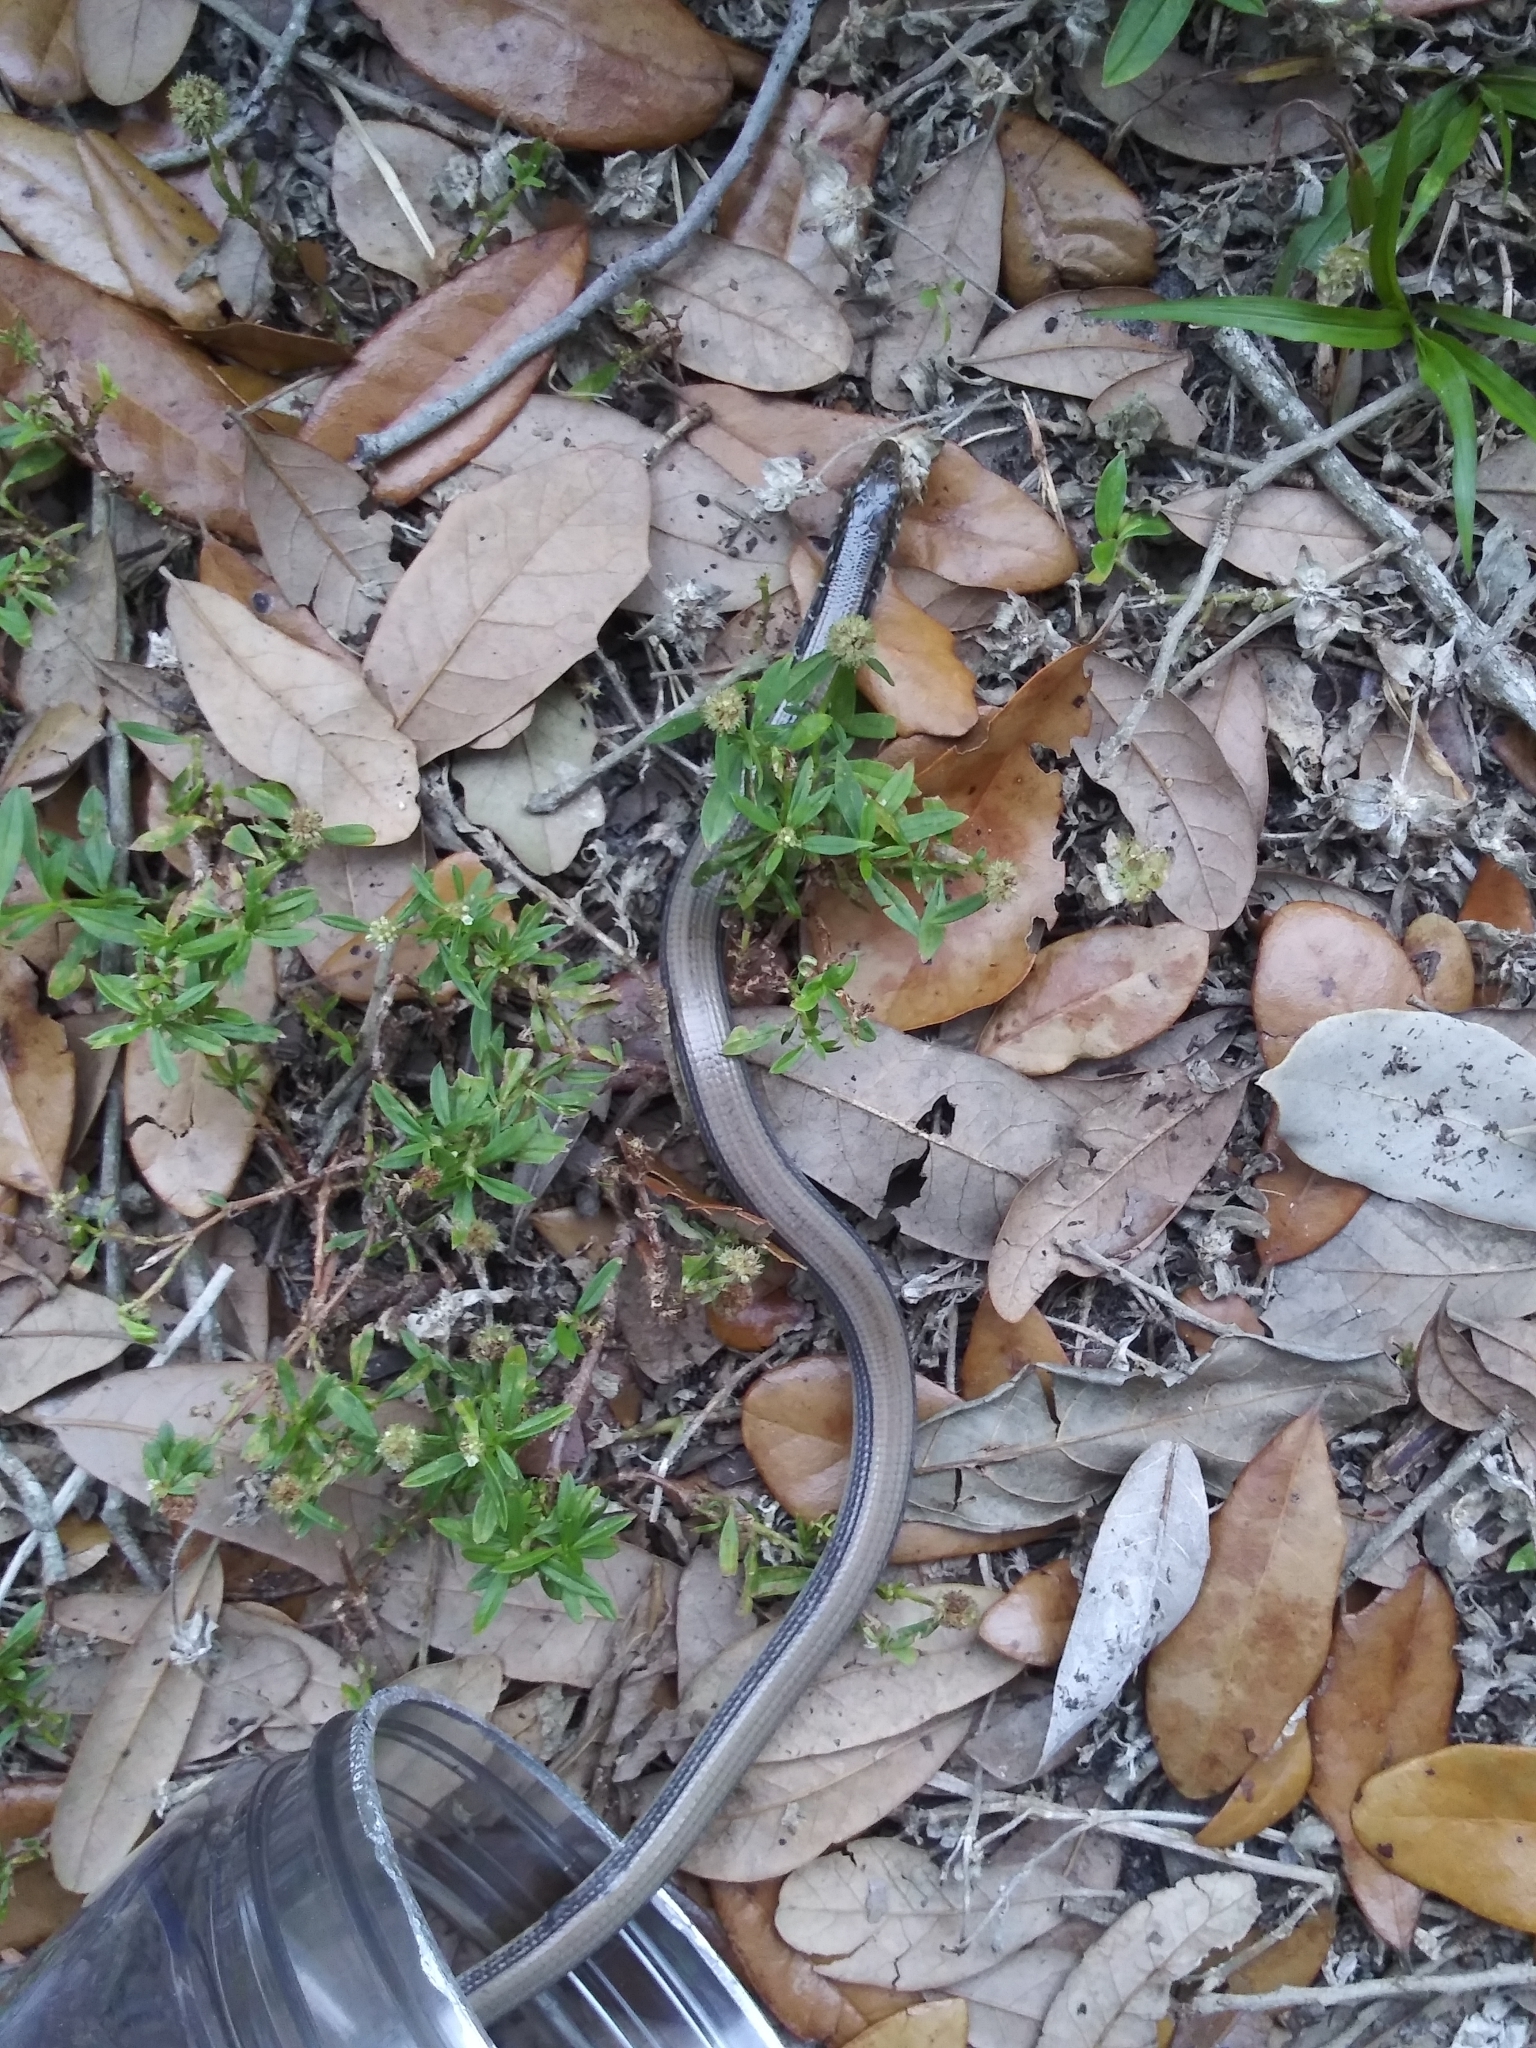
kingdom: Animalia
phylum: Chordata
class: Squamata
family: Anguidae
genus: Ophisaurus
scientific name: Ophisaurus ventralis
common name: Eastern glass lizard
